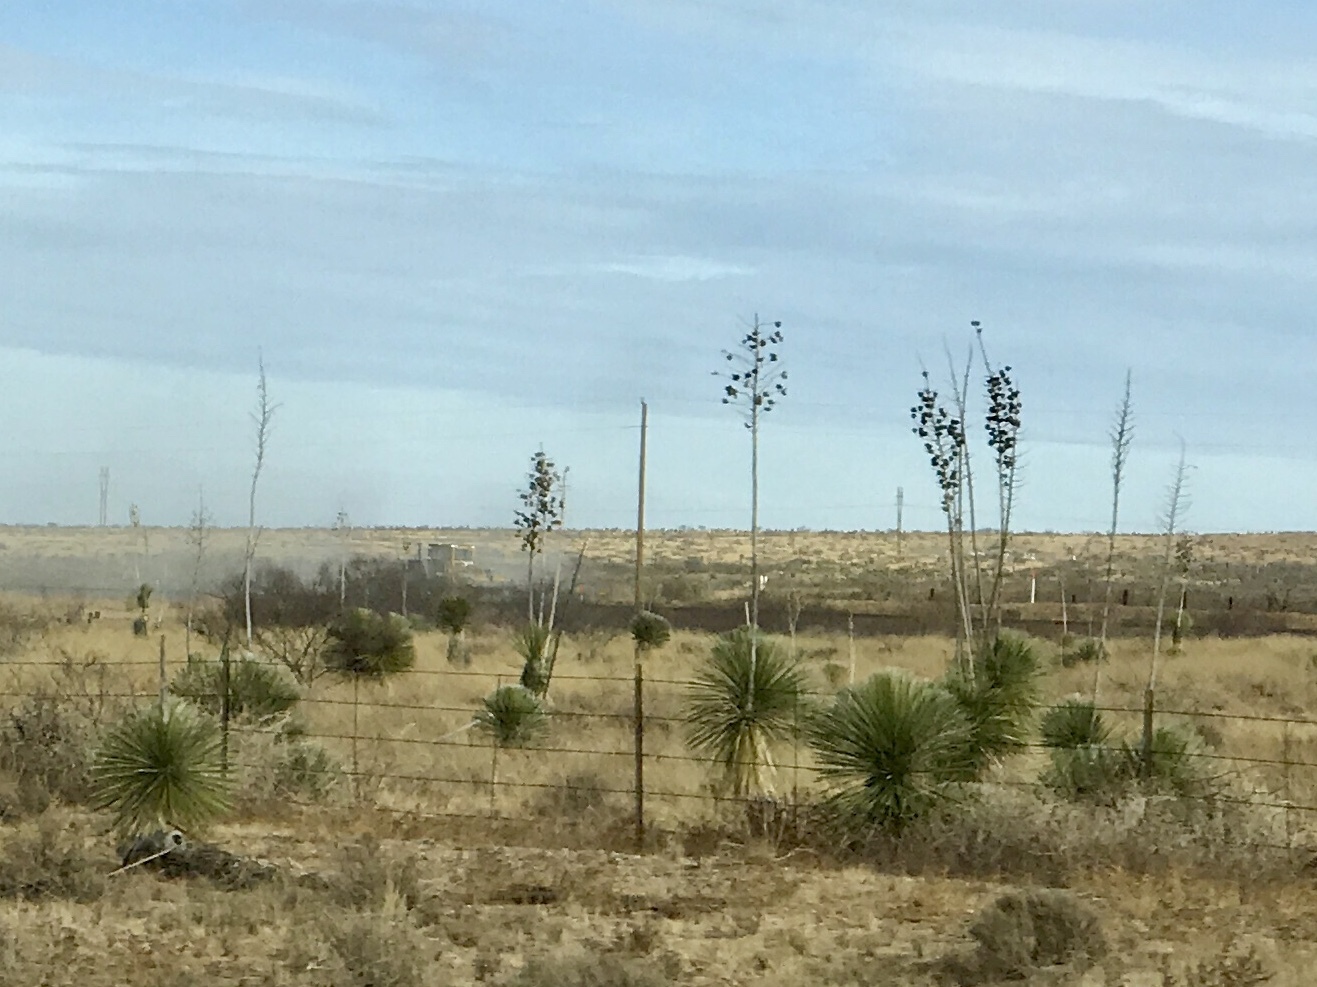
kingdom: Plantae
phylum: Tracheophyta
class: Liliopsida
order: Asparagales
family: Asparagaceae
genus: Yucca
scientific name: Yucca elata
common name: Palmella
